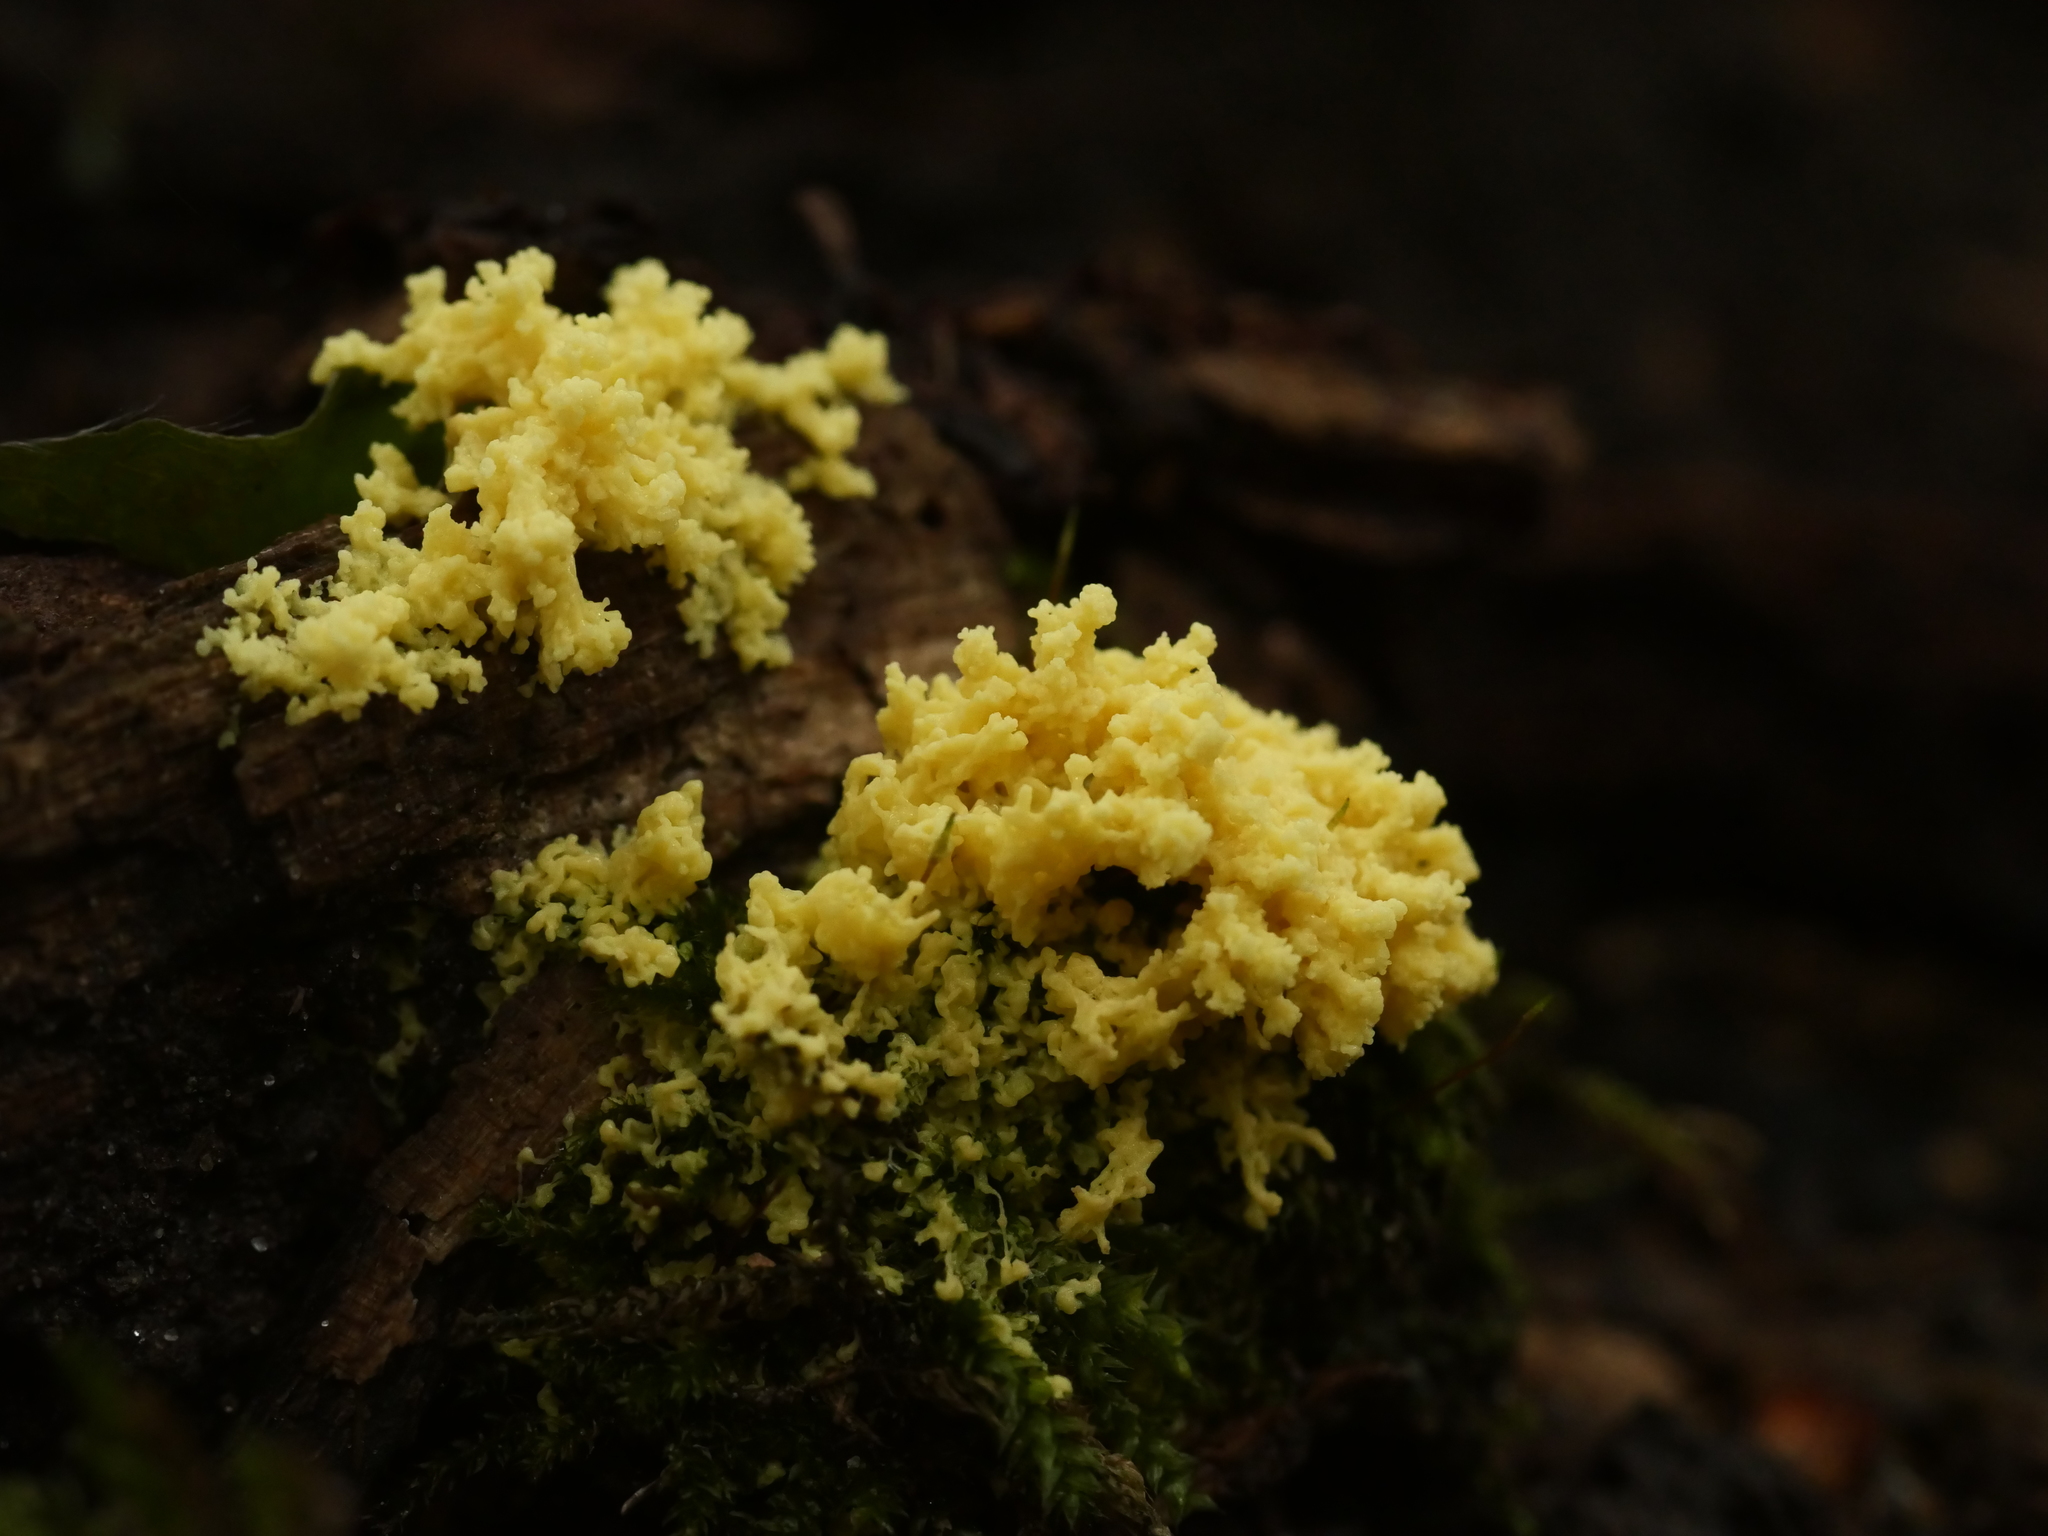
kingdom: Protozoa
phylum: Mycetozoa
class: Myxomycetes
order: Physarales
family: Physaraceae
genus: Fuligo
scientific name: Fuligo septica
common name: Dog vomit slime mold
